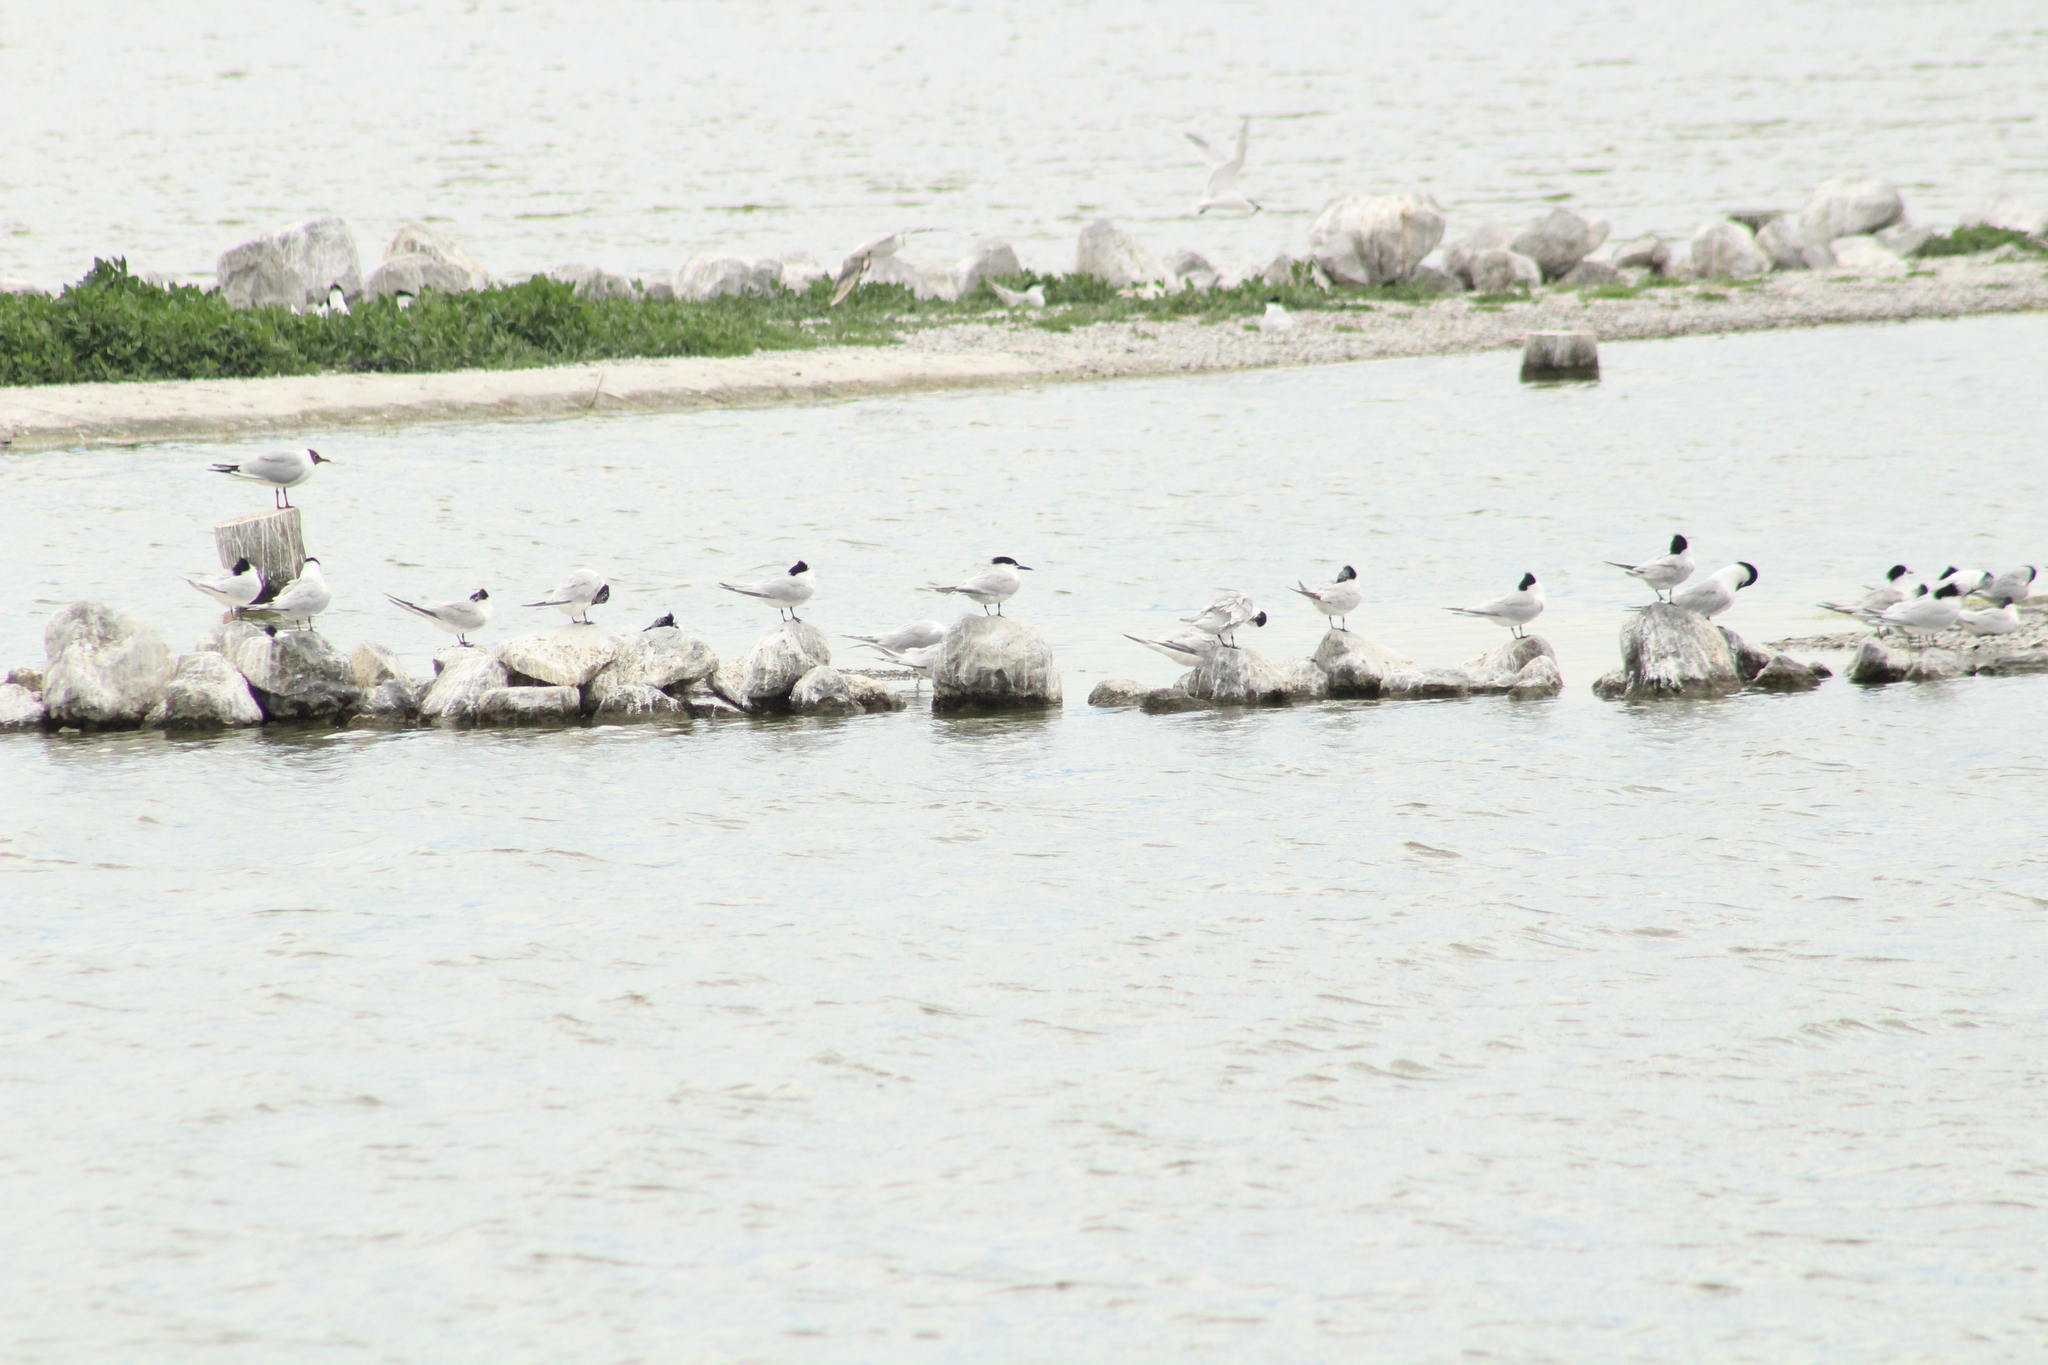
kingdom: Animalia
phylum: Chordata
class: Aves
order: Charadriiformes
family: Laridae
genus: Thalasseus
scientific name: Thalasseus sandvicensis
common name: Sandwich tern
